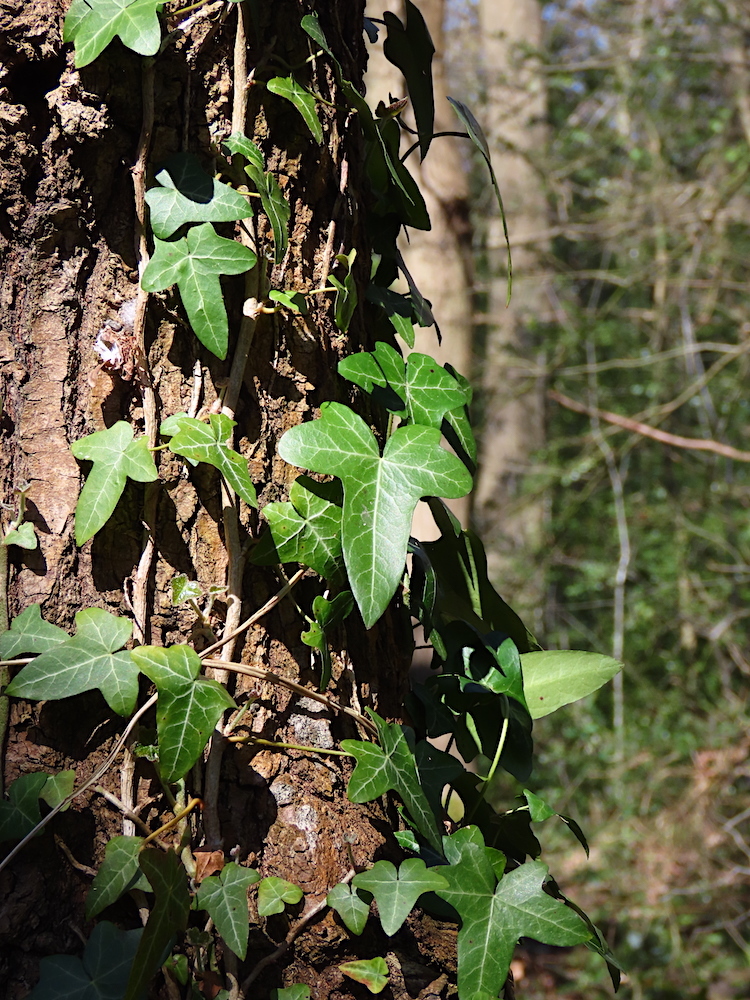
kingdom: Plantae
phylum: Tracheophyta
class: Magnoliopsida
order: Apiales
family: Araliaceae
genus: Hedera
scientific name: Hedera helix
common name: Ivy
